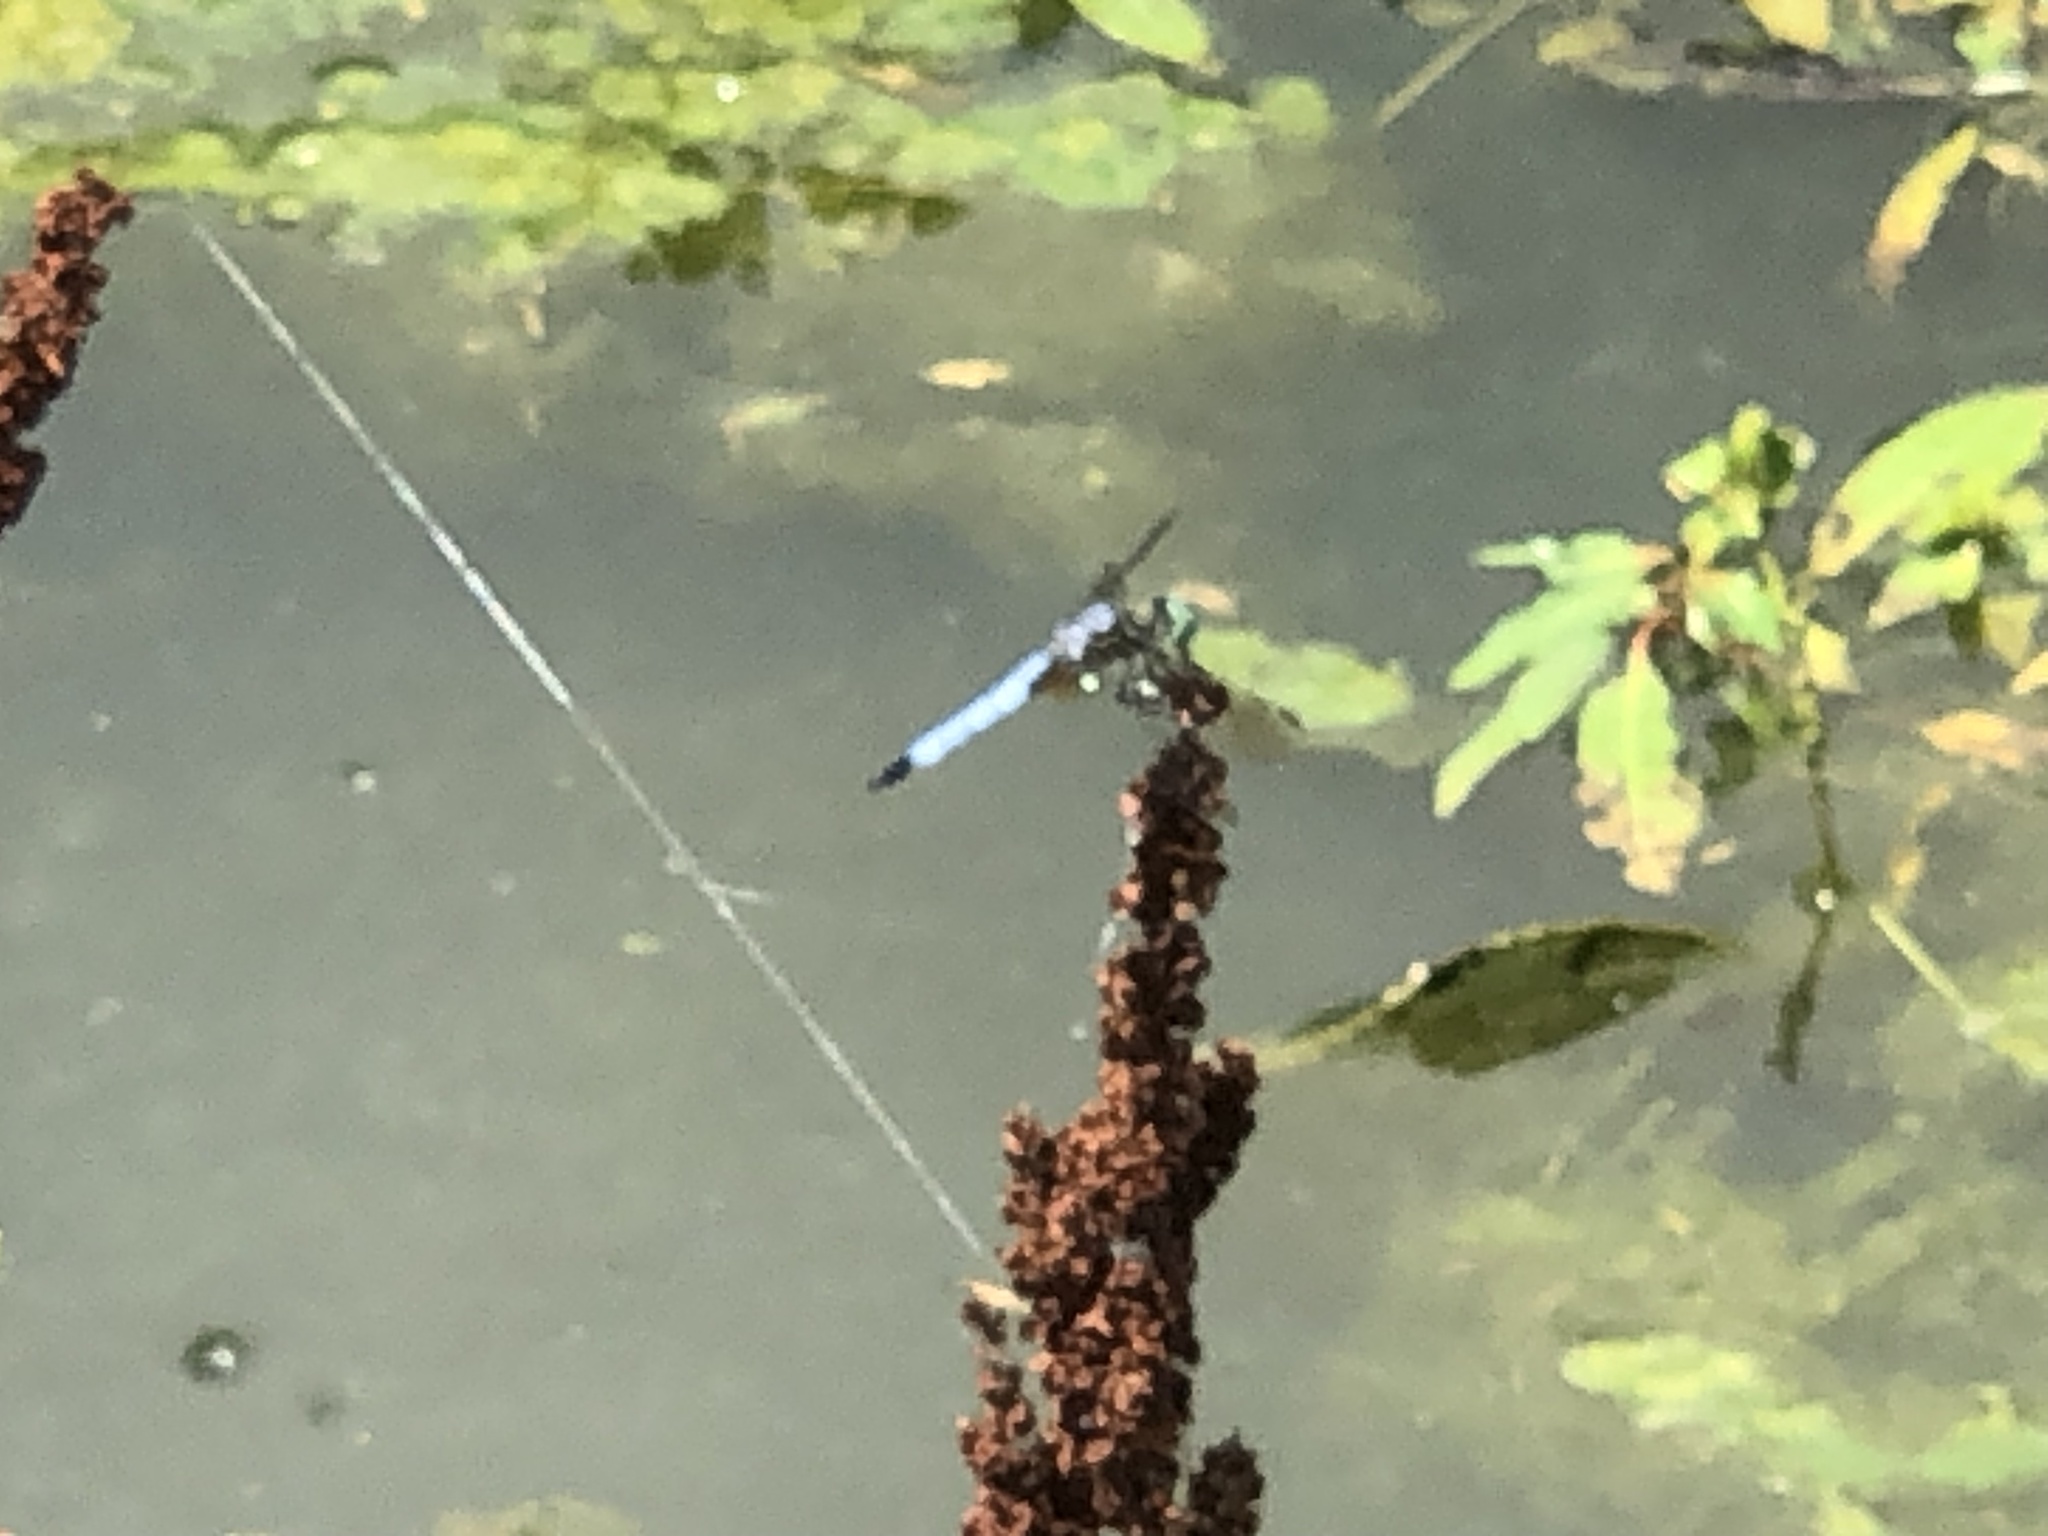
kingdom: Animalia
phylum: Arthropoda
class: Insecta
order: Odonata
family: Libellulidae
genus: Pachydiplax
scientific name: Pachydiplax longipennis
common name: Blue dasher
